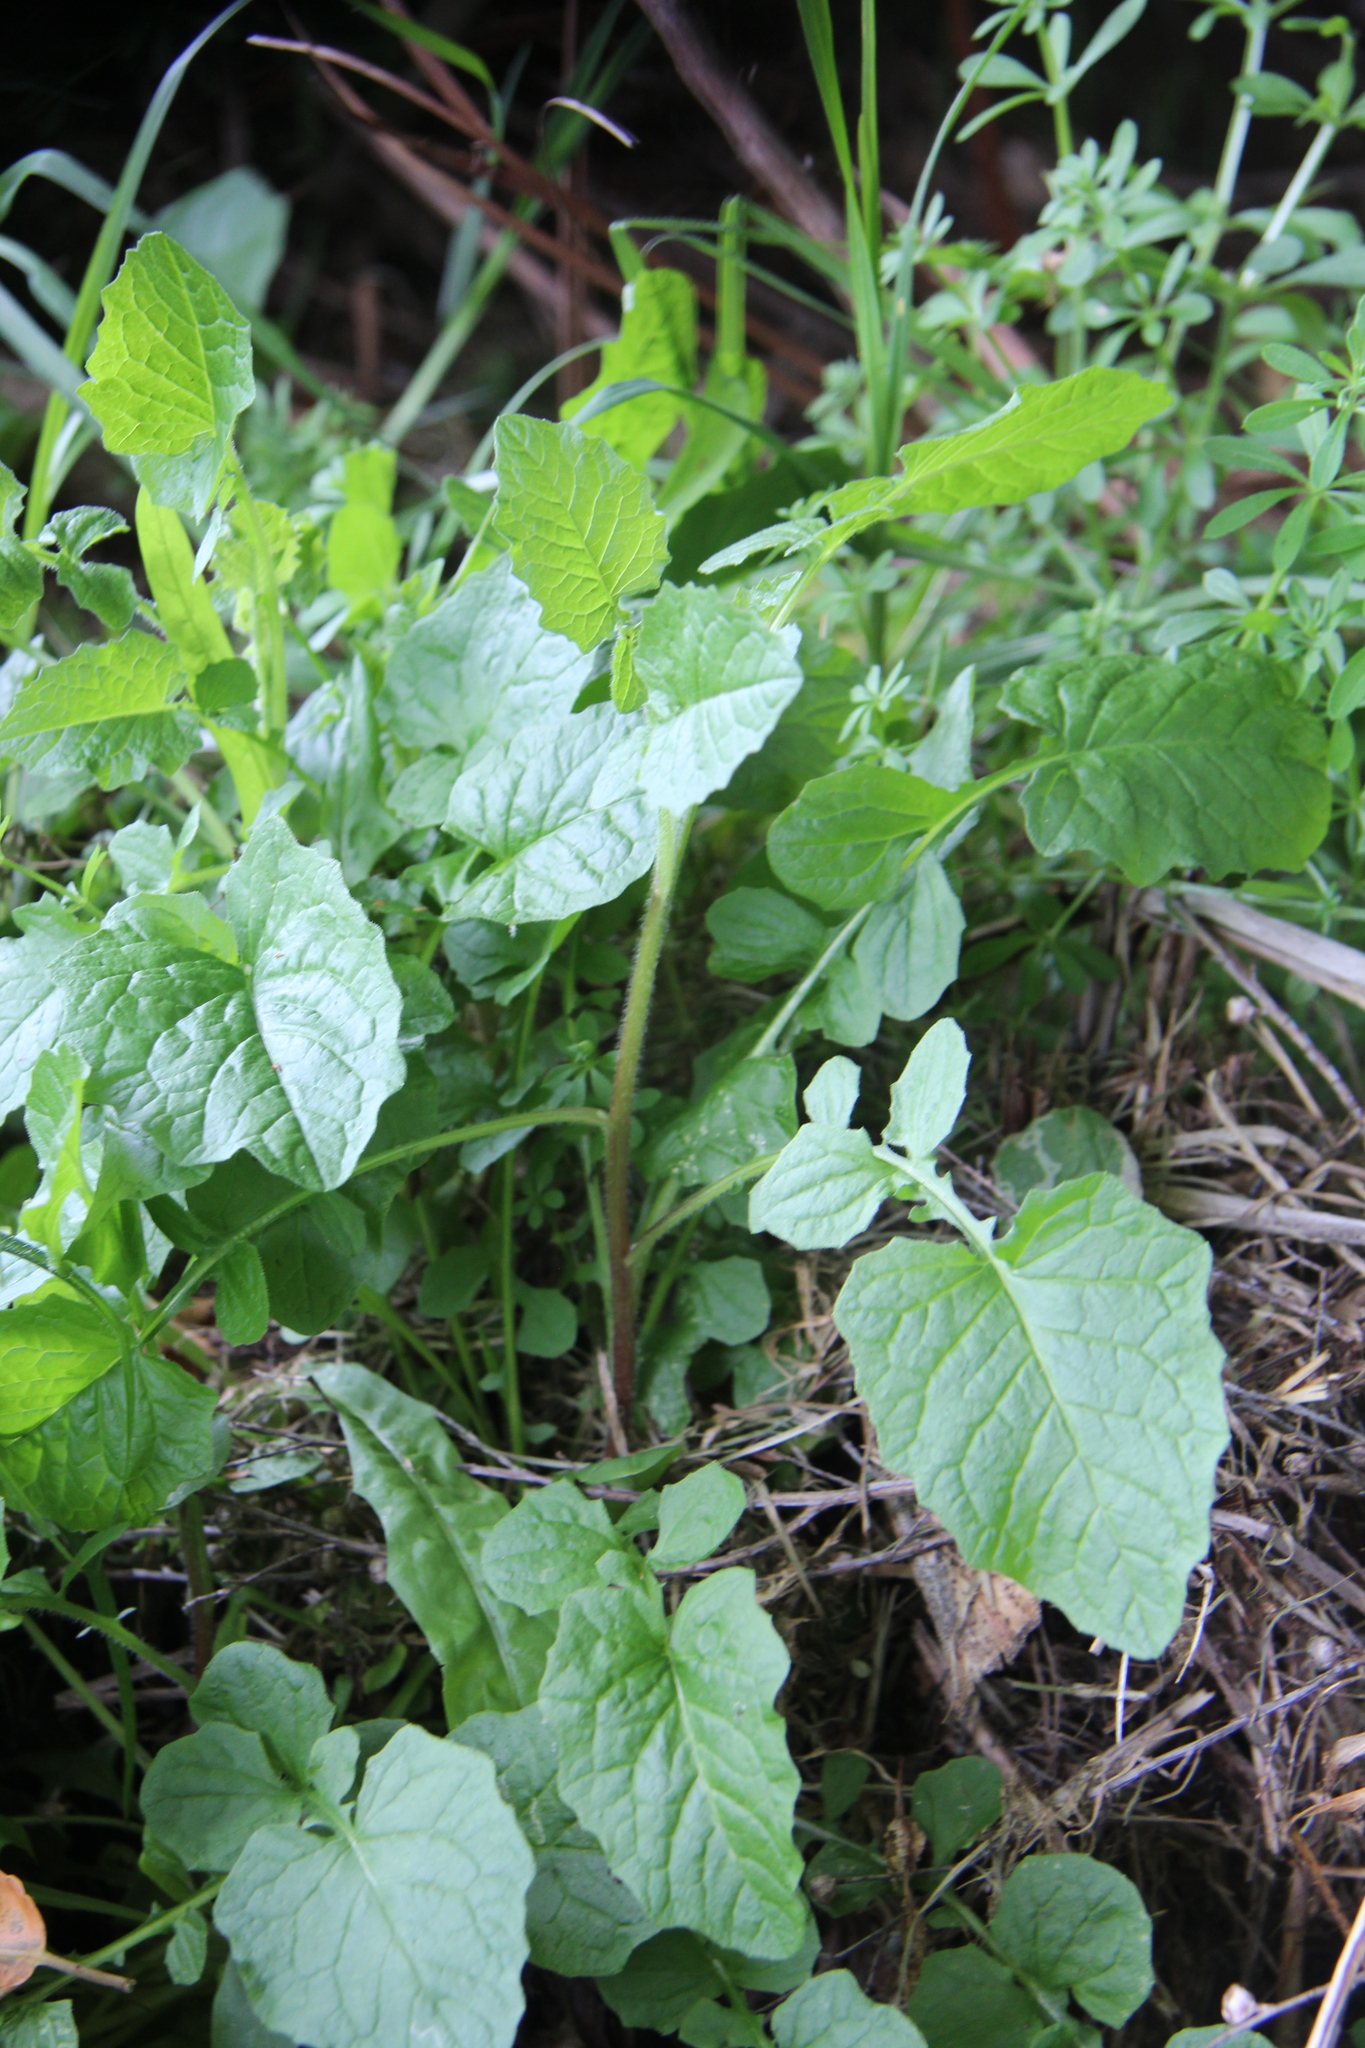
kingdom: Plantae
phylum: Tracheophyta
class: Magnoliopsida
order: Asterales
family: Asteraceae
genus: Lapsana
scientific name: Lapsana communis
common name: Nipplewort
